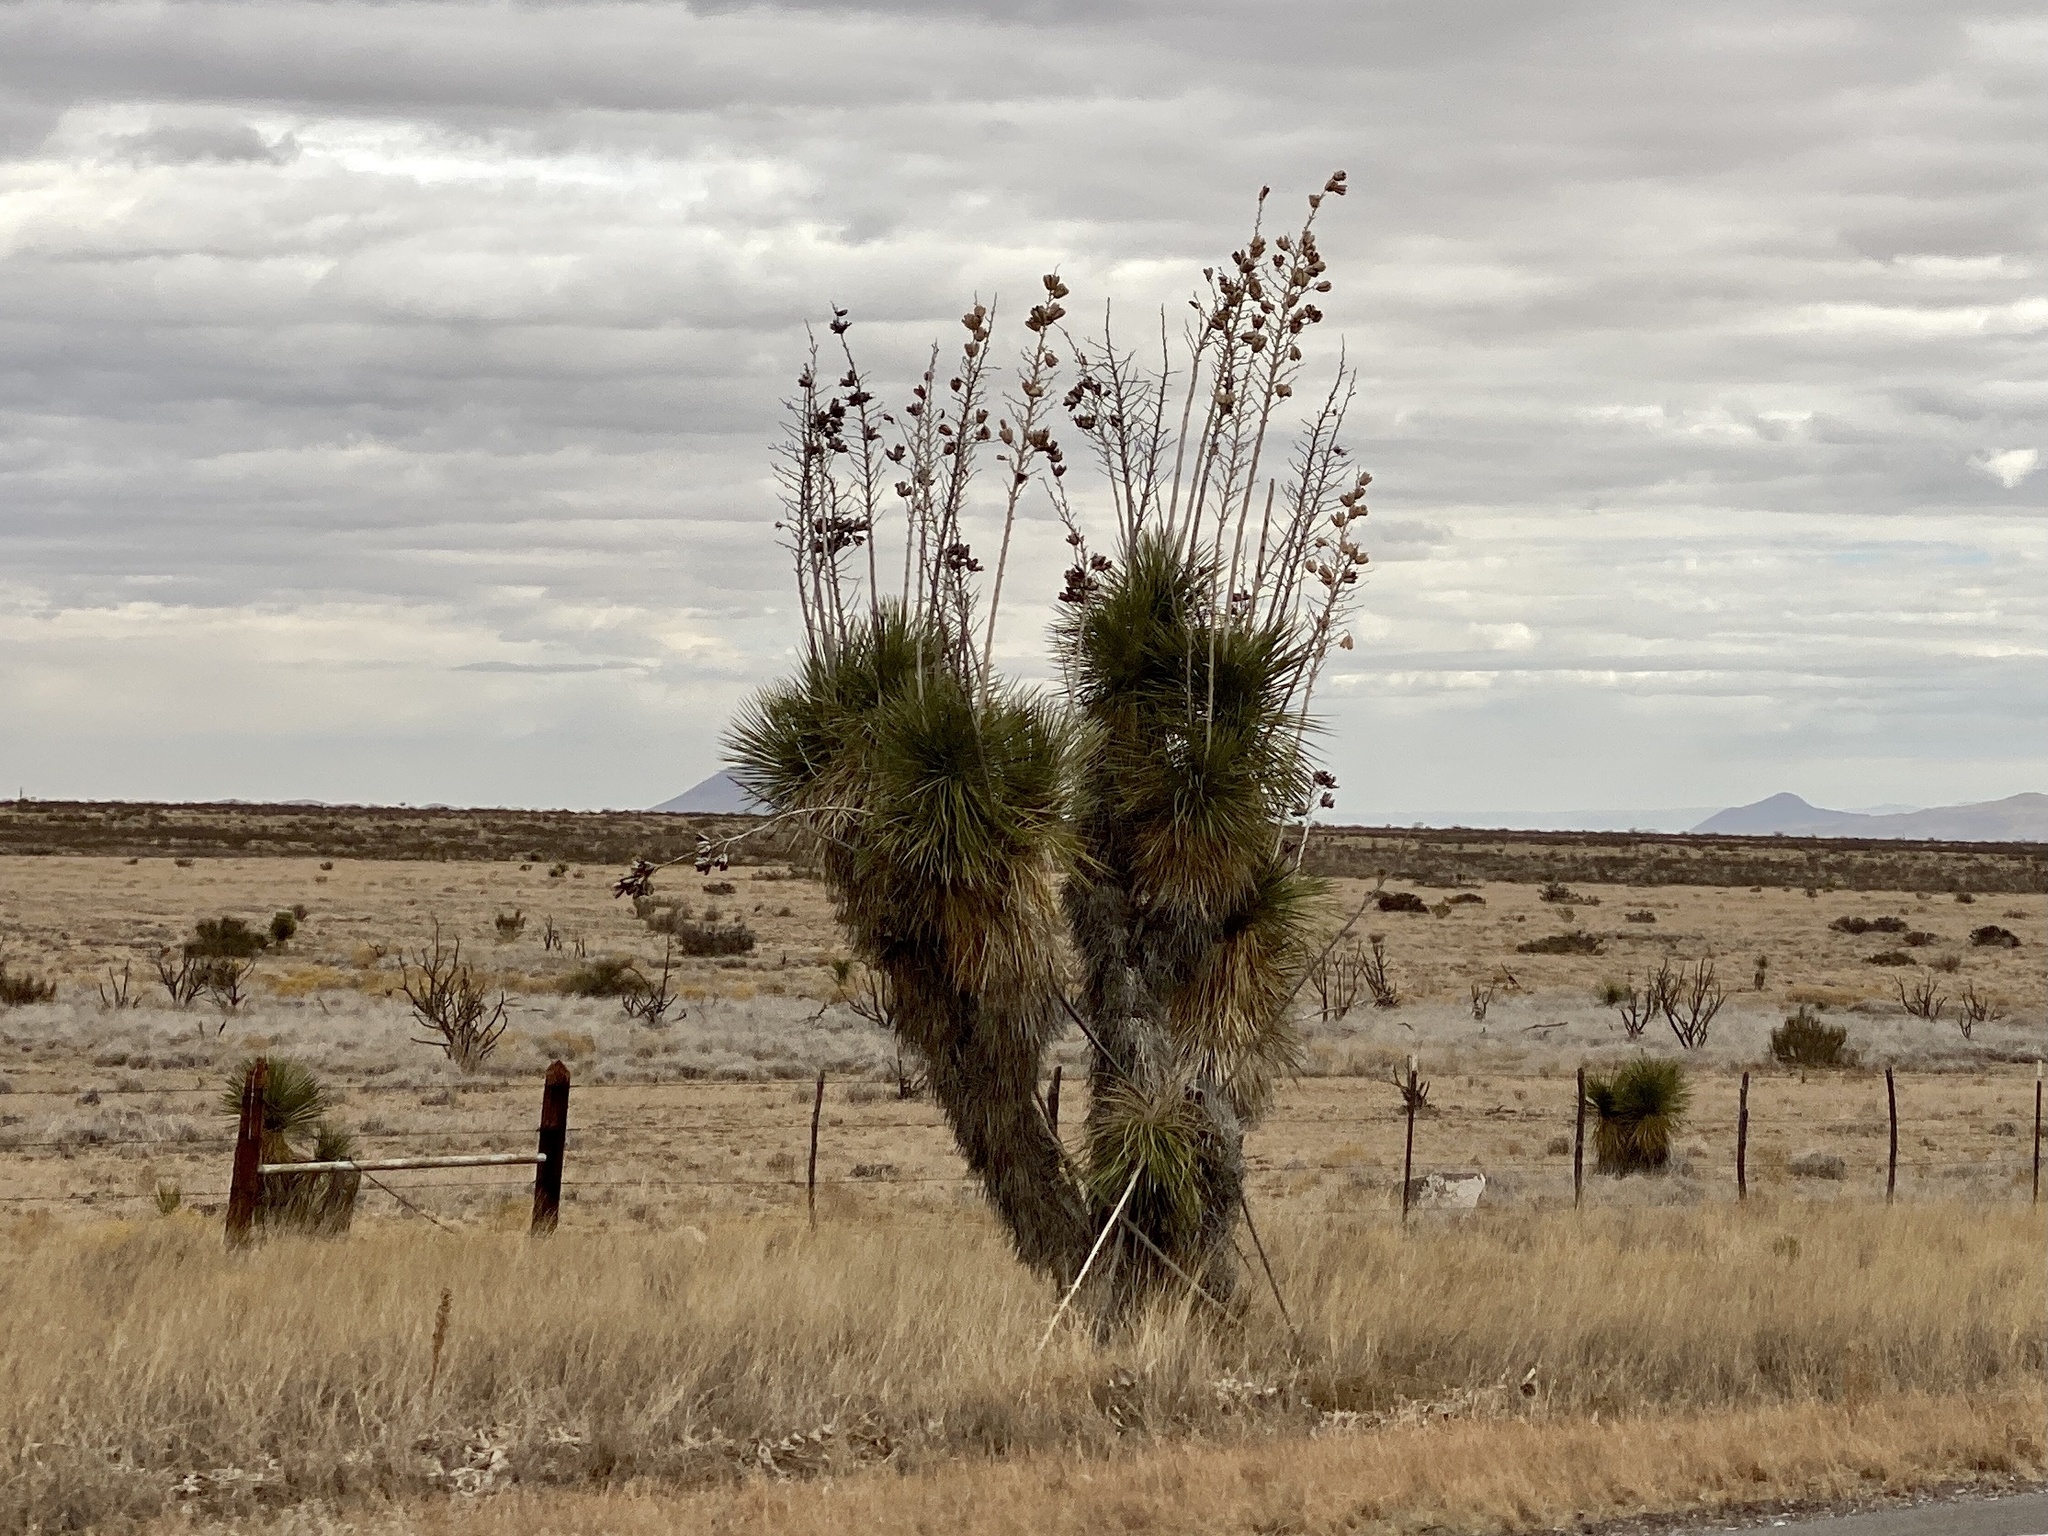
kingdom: Plantae
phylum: Tracheophyta
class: Liliopsida
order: Asparagales
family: Asparagaceae
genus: Yucca
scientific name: Yucca elata
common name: Palmella
